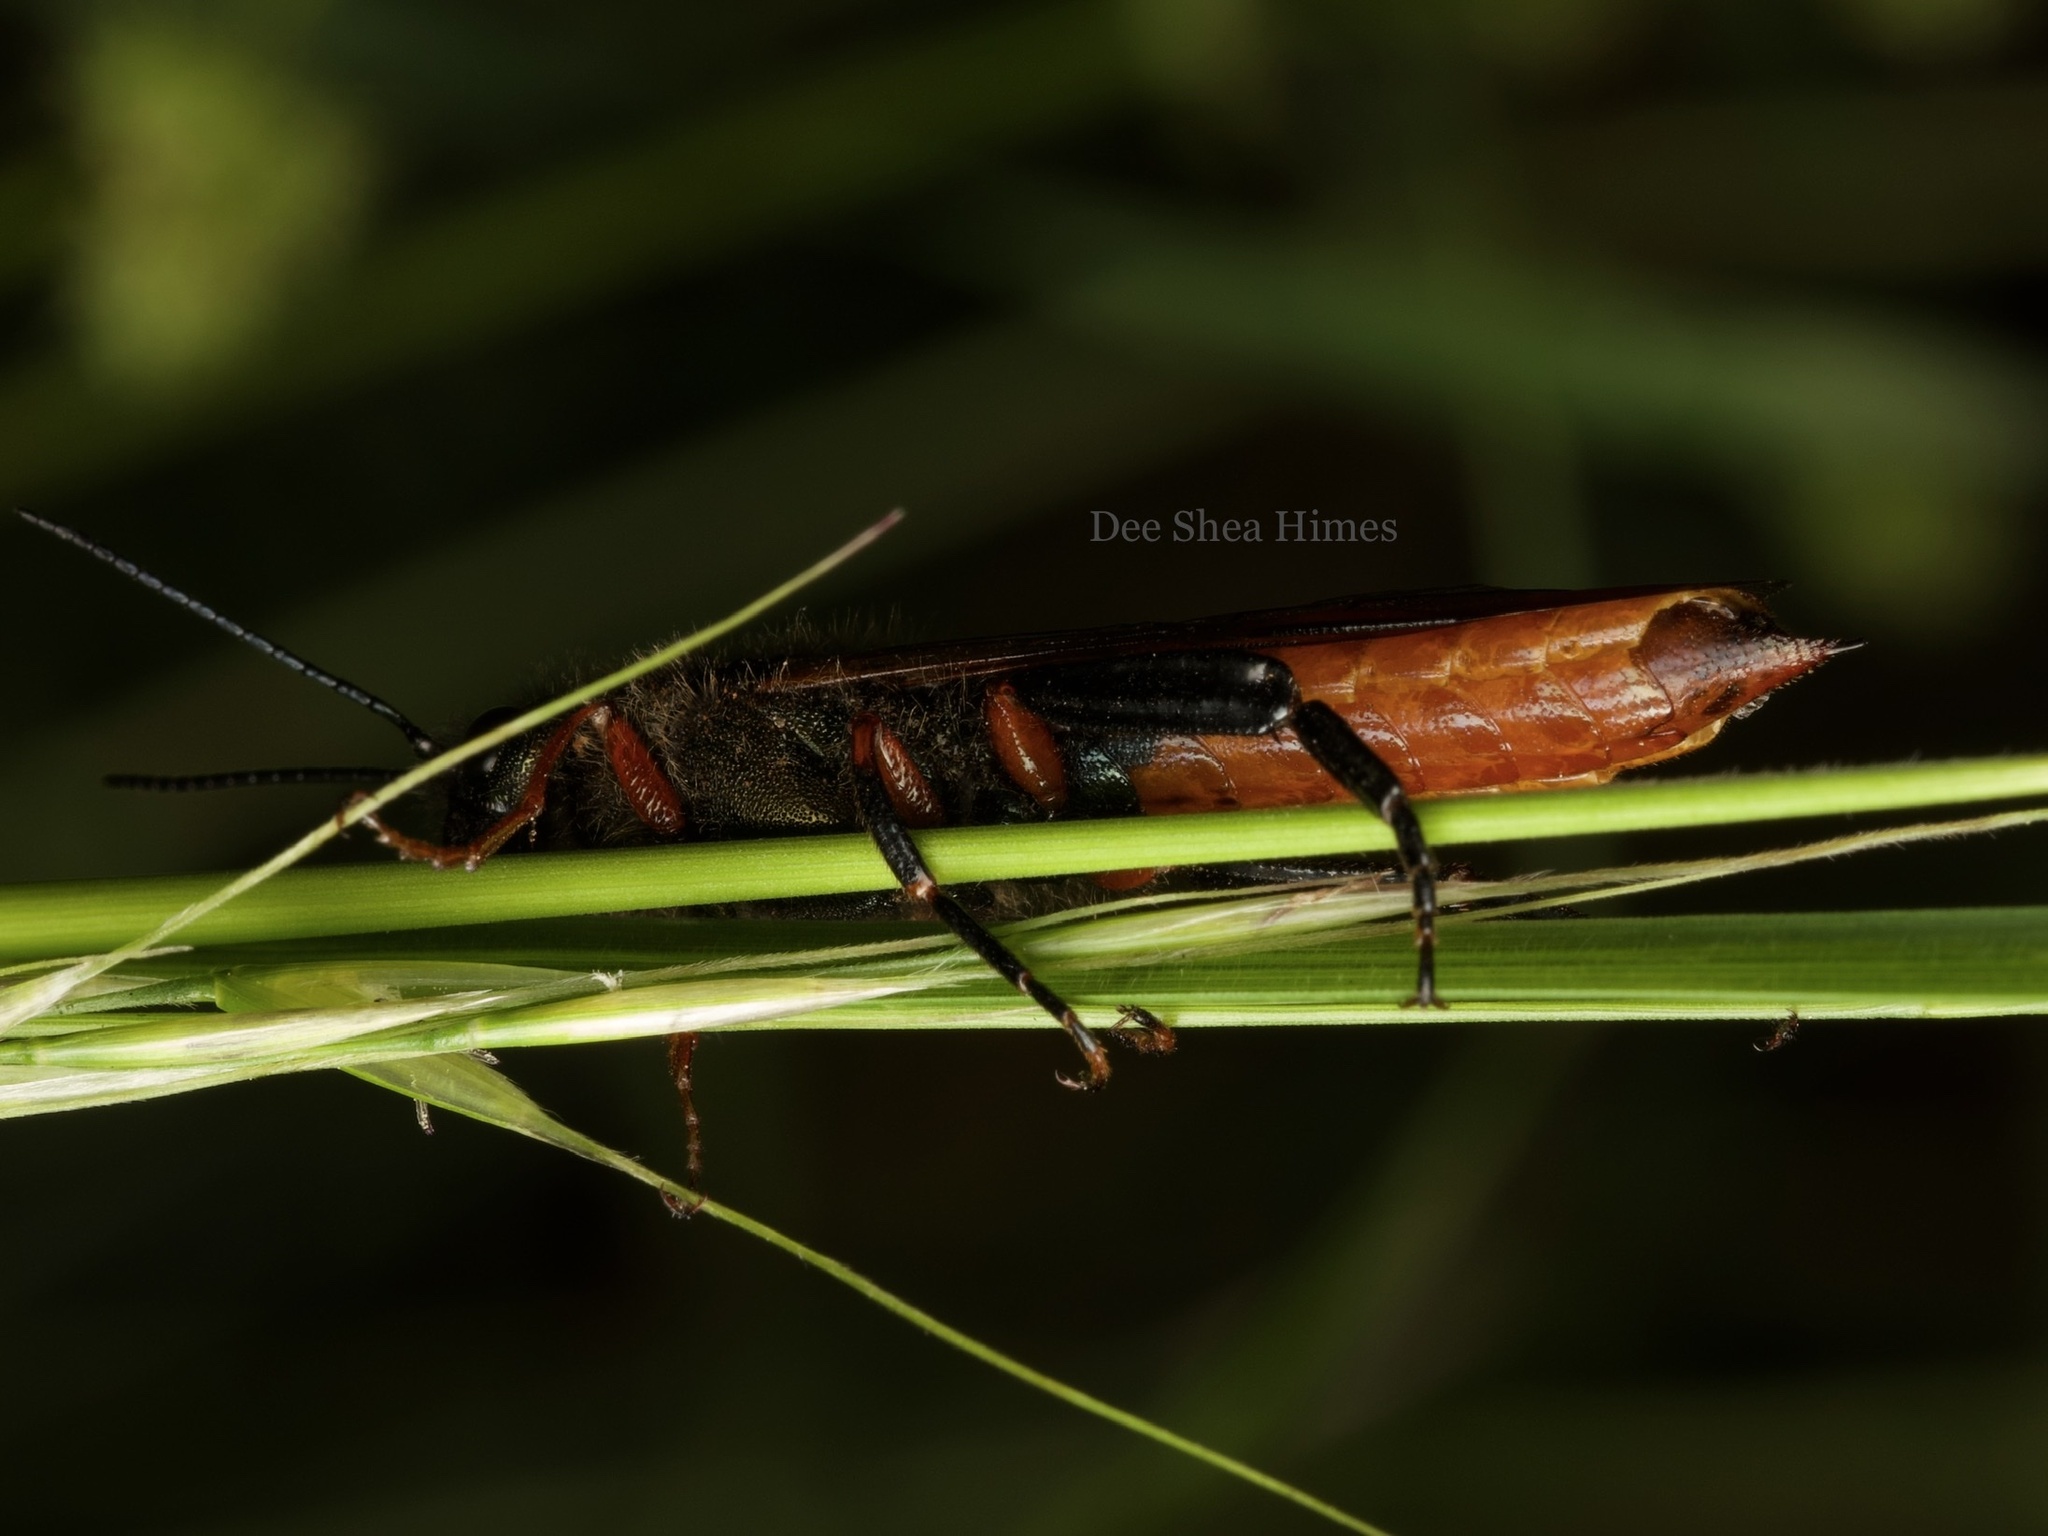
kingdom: Animalia
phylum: Arthropoda
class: Insecta
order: Hymenoptera
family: Siricidae
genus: Sirex
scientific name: Sirex varipes
